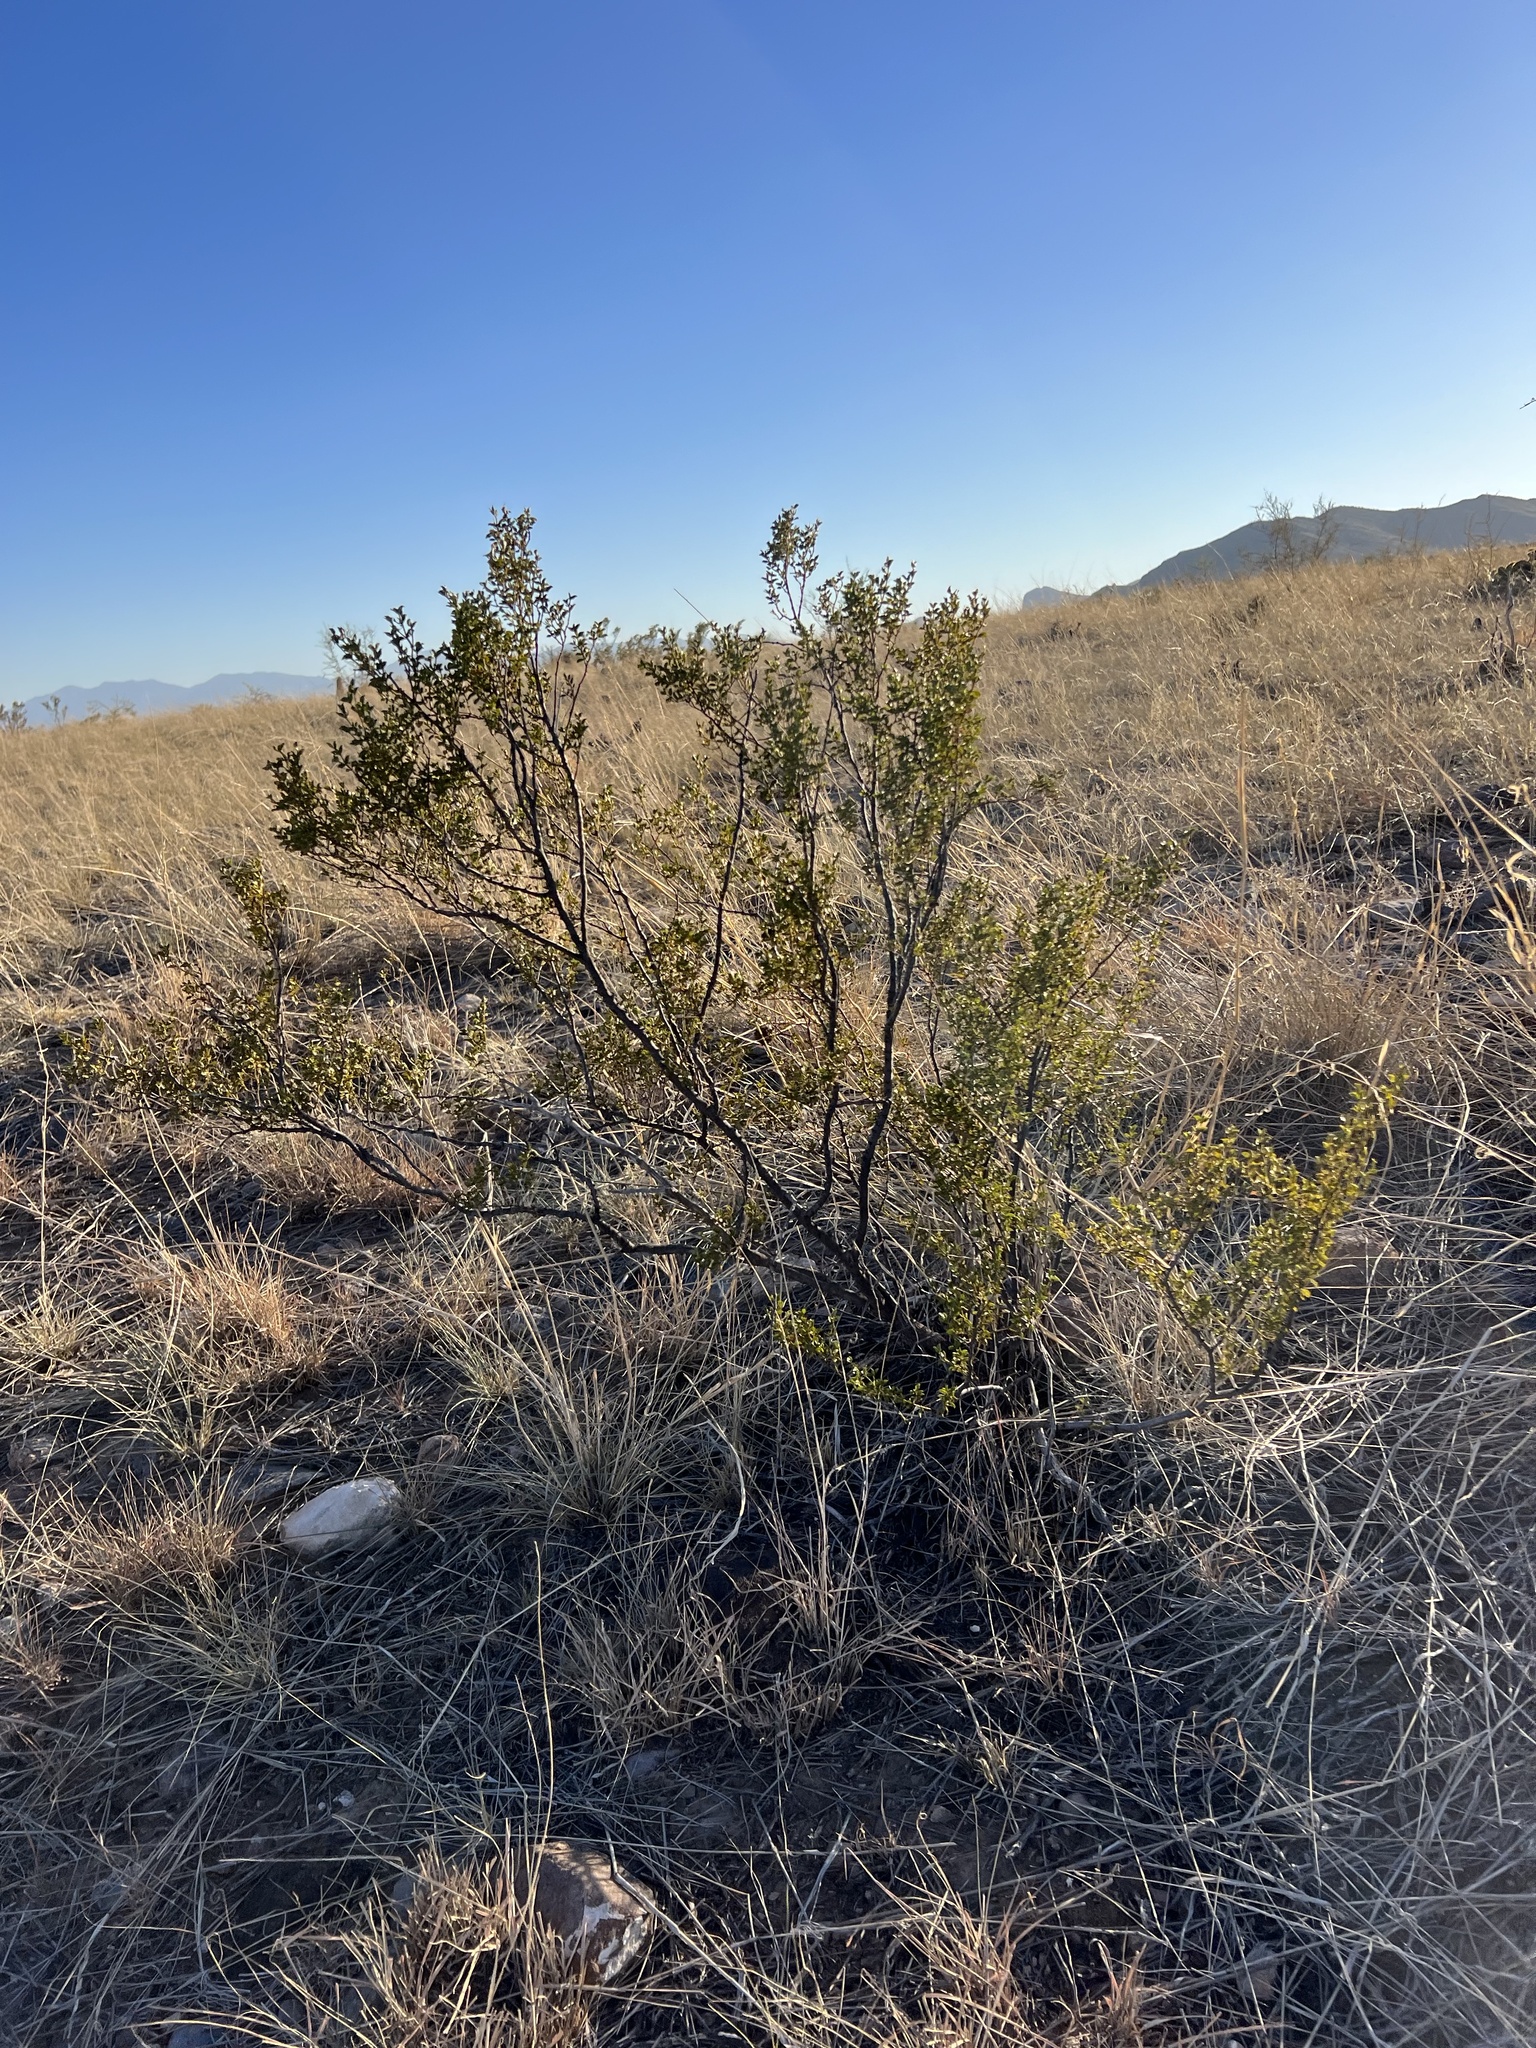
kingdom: Plantae
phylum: Tracheophyta
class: Magnoliopsida
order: Zygophyllales
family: Zygophyllaceae
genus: Larrea
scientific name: Larrea tridentata
